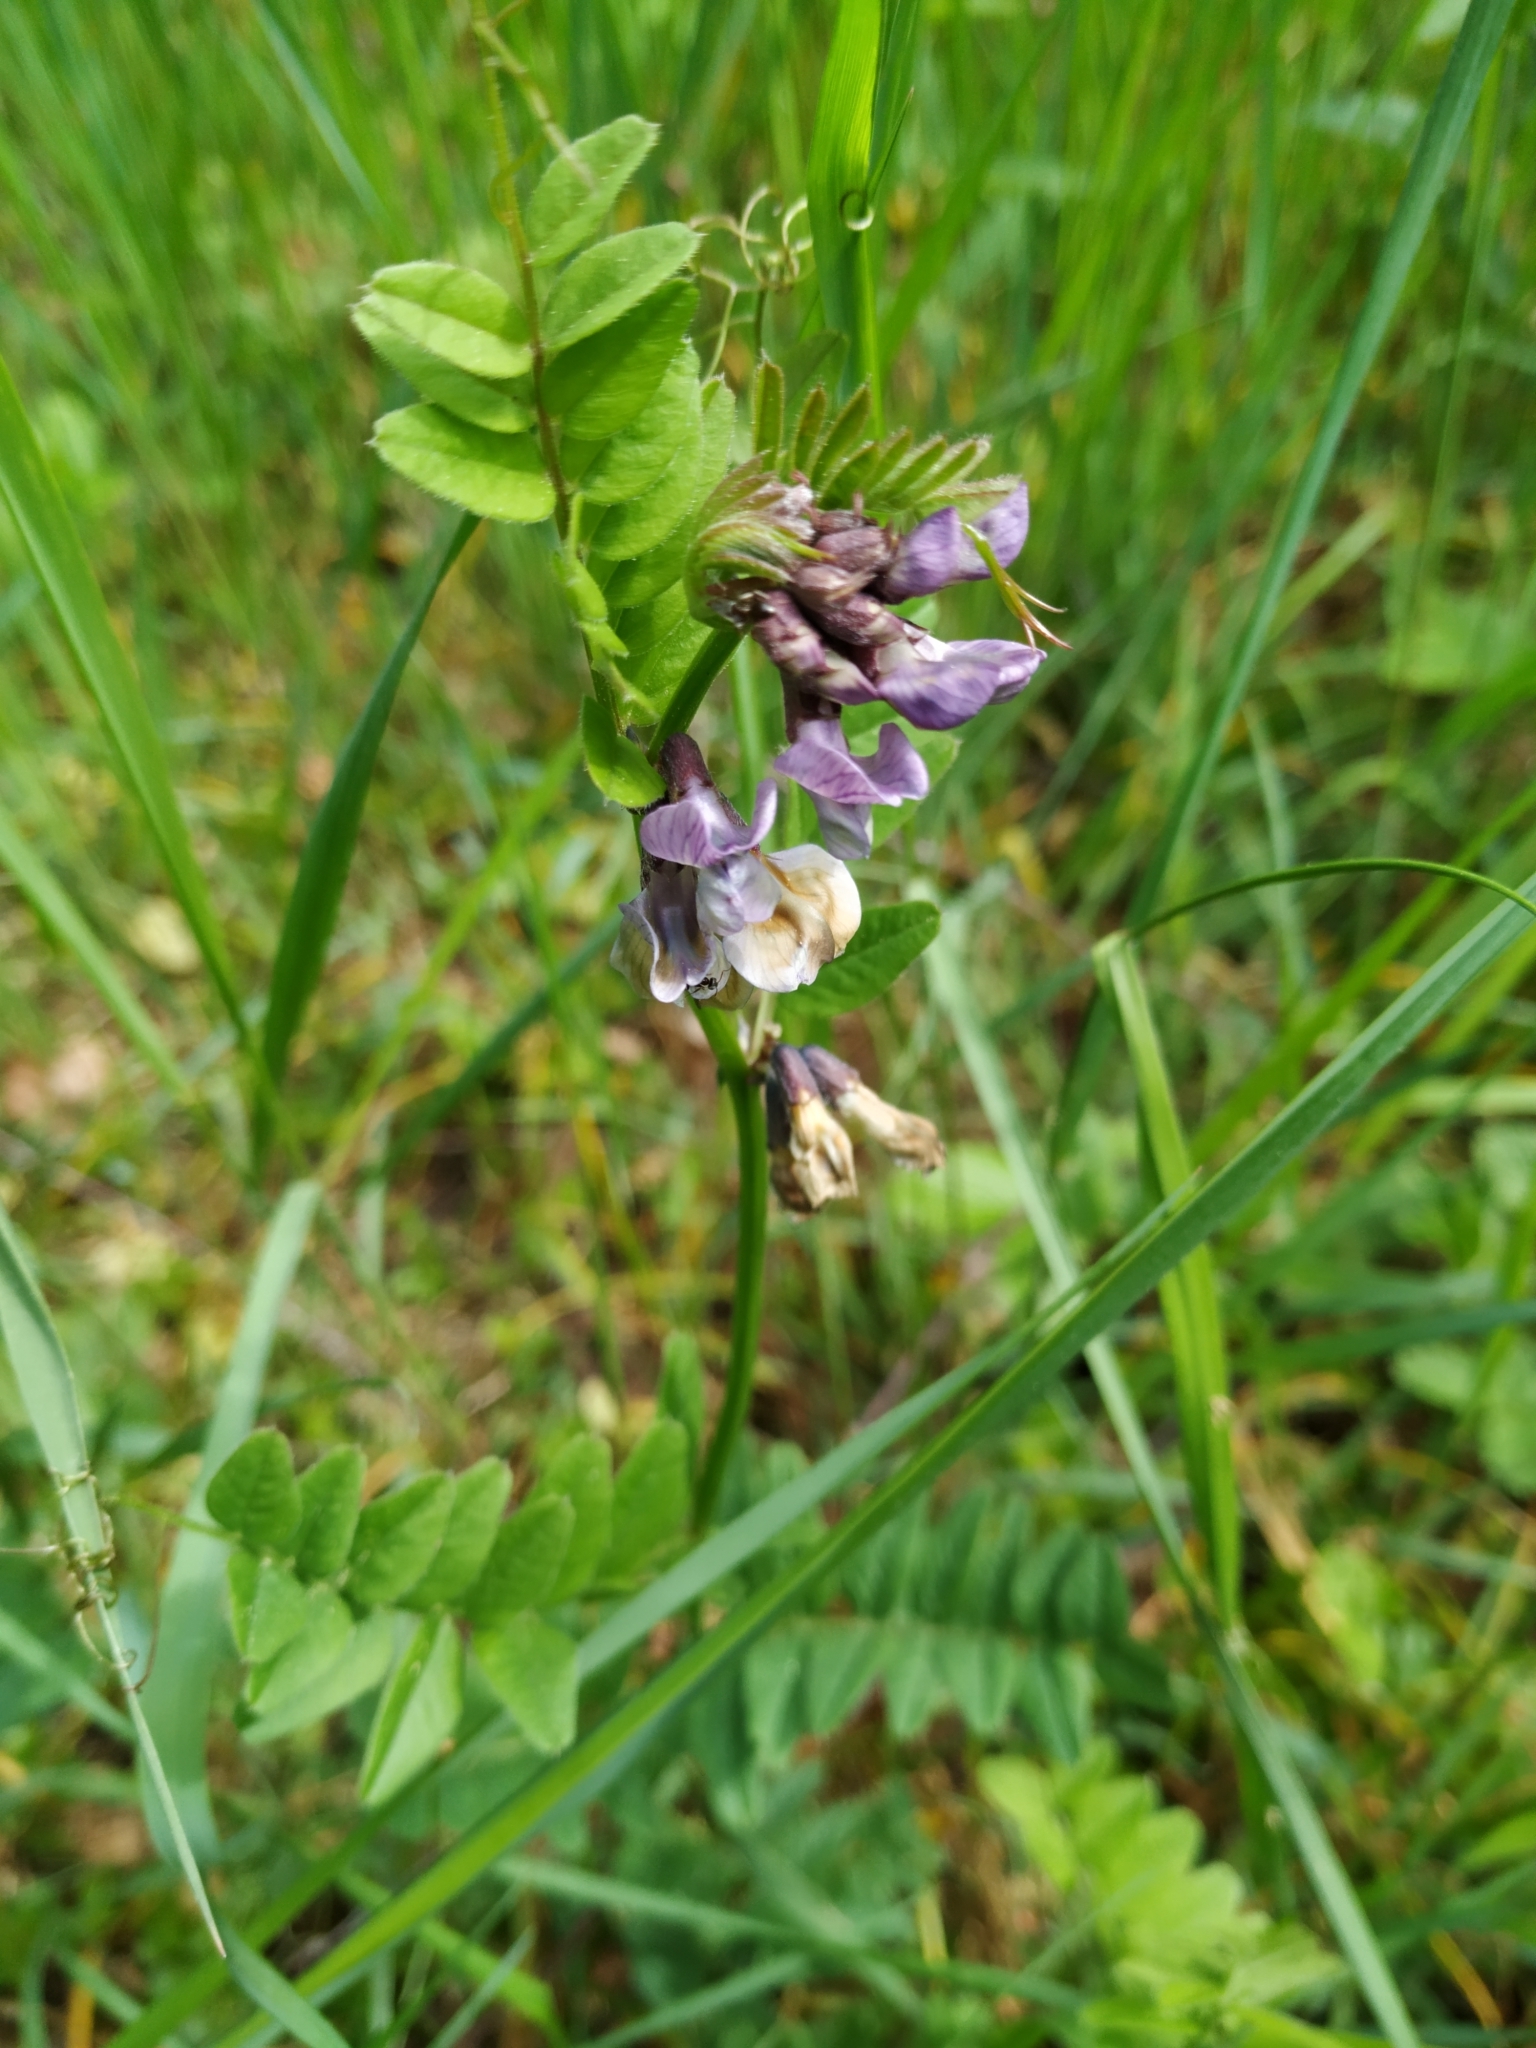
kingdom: Plantae
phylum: Tracheophyta
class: Magnoliopsida
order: Fabales
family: Fabaceae
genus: Vicia
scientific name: Vicia sepium
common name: Bush vetch
